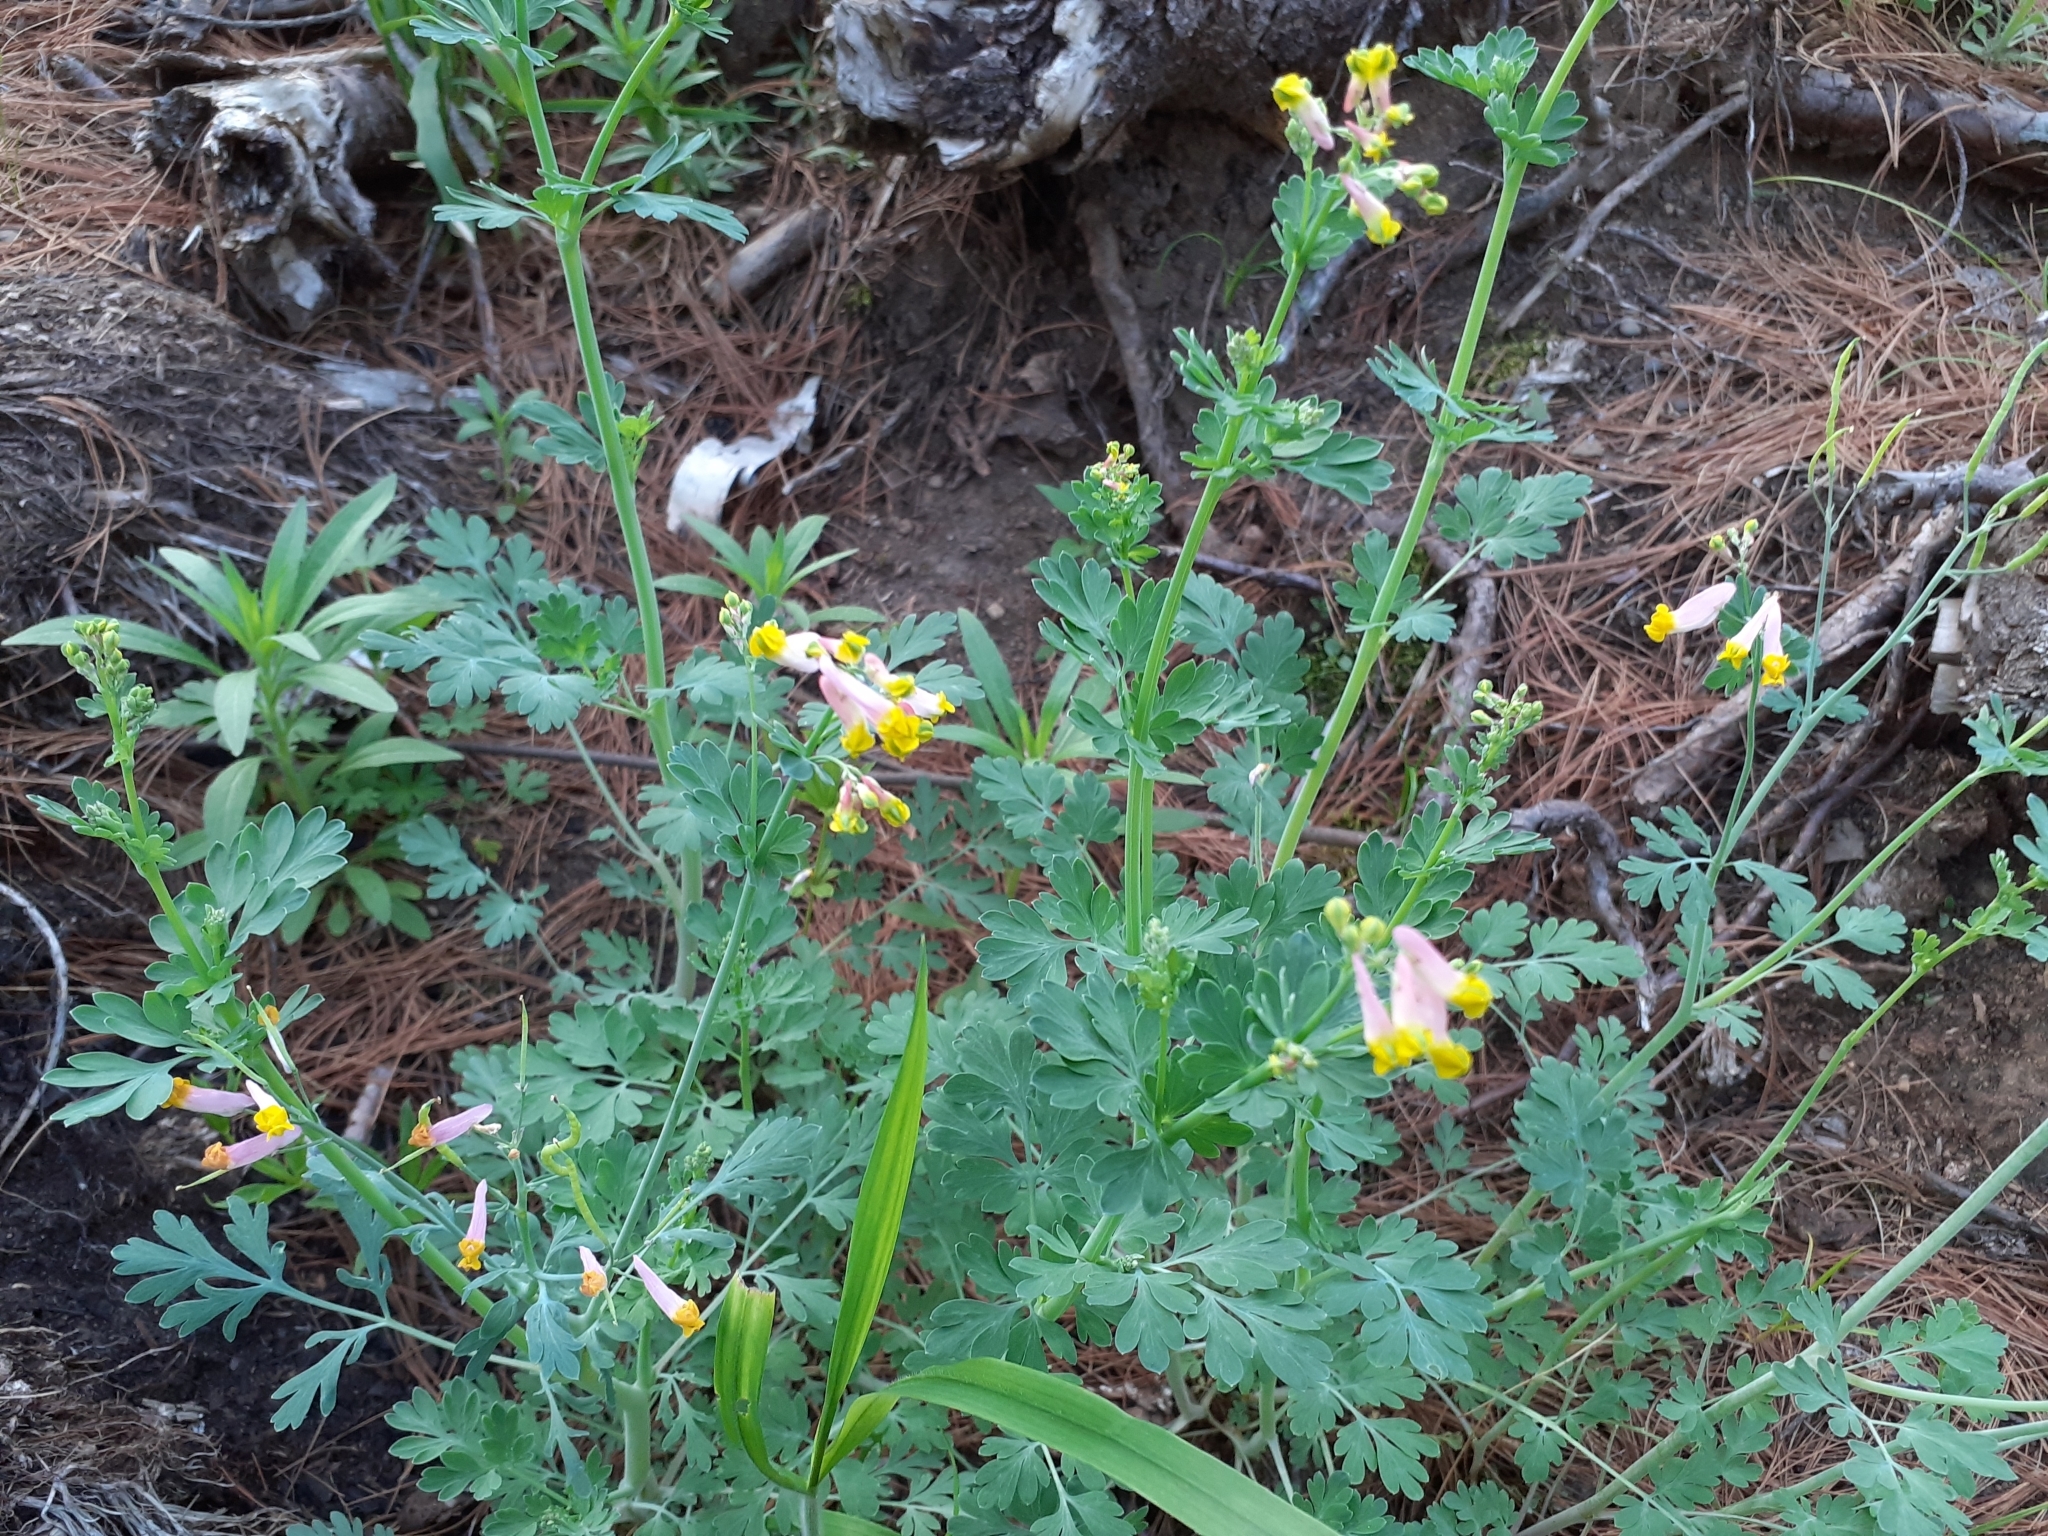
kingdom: Plantae
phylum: Tracheophyta
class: Magnoliopsida
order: Ranunculales
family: Papaveraceae
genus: Capnoides
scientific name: Capnoides sempervirens
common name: Rock harlequin
